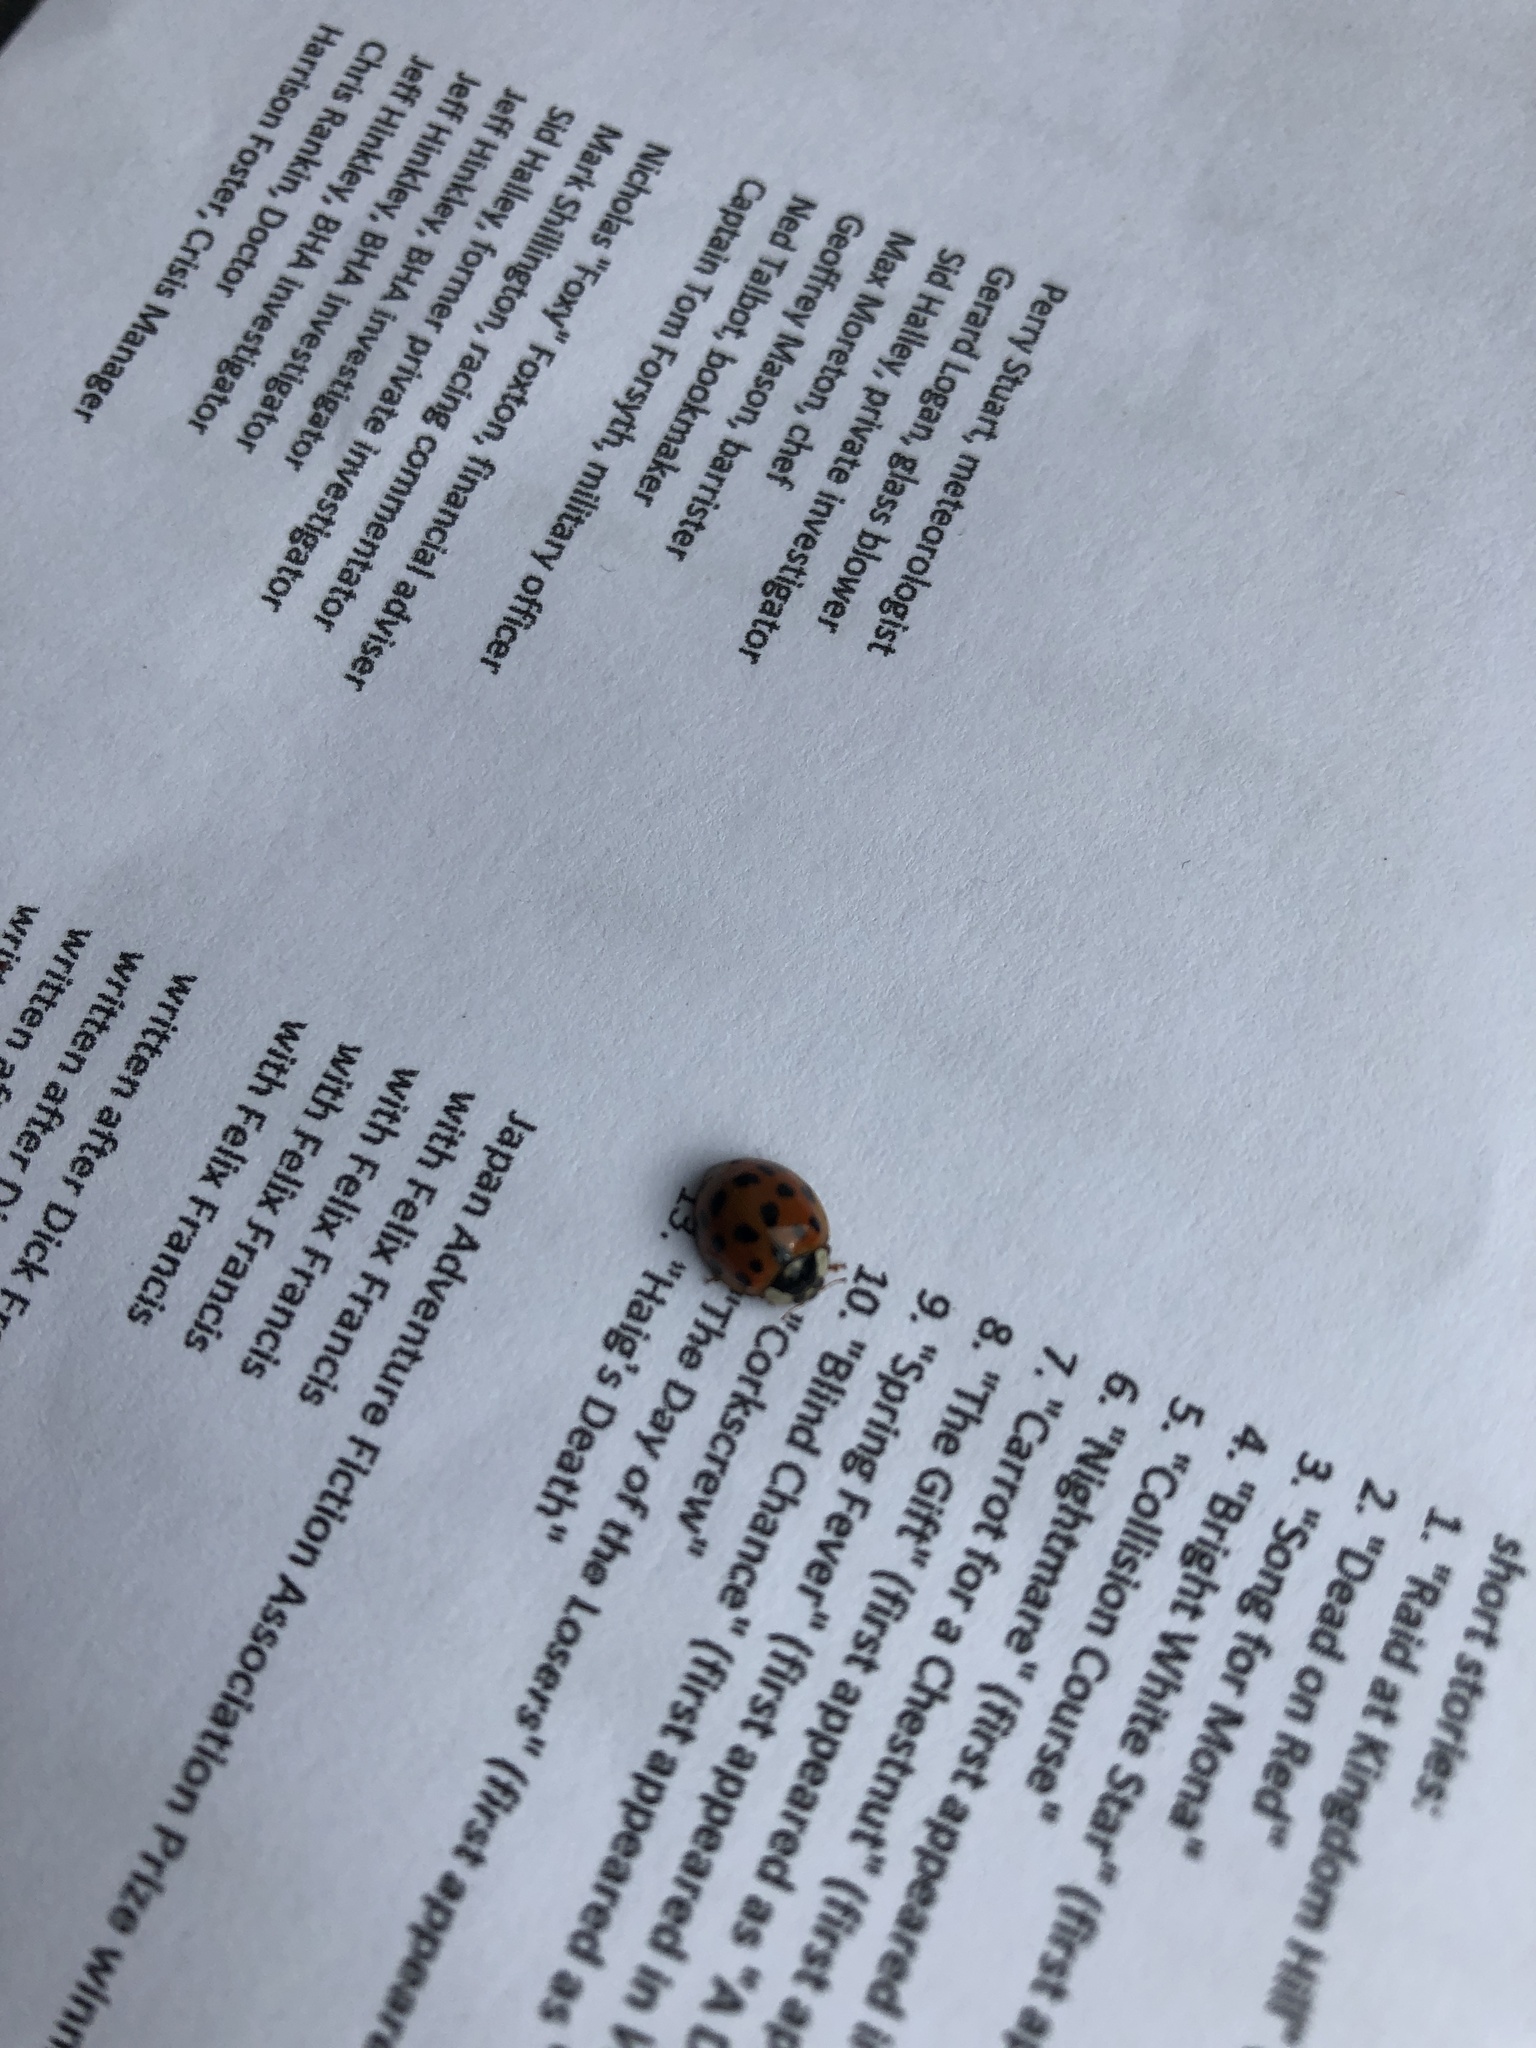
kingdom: Animalia
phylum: Arthropoda
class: Insecta
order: Coleoptera
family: Coccinellidae
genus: Harmonia
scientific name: Harmonia axyridis
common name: Harlequin ladybird
